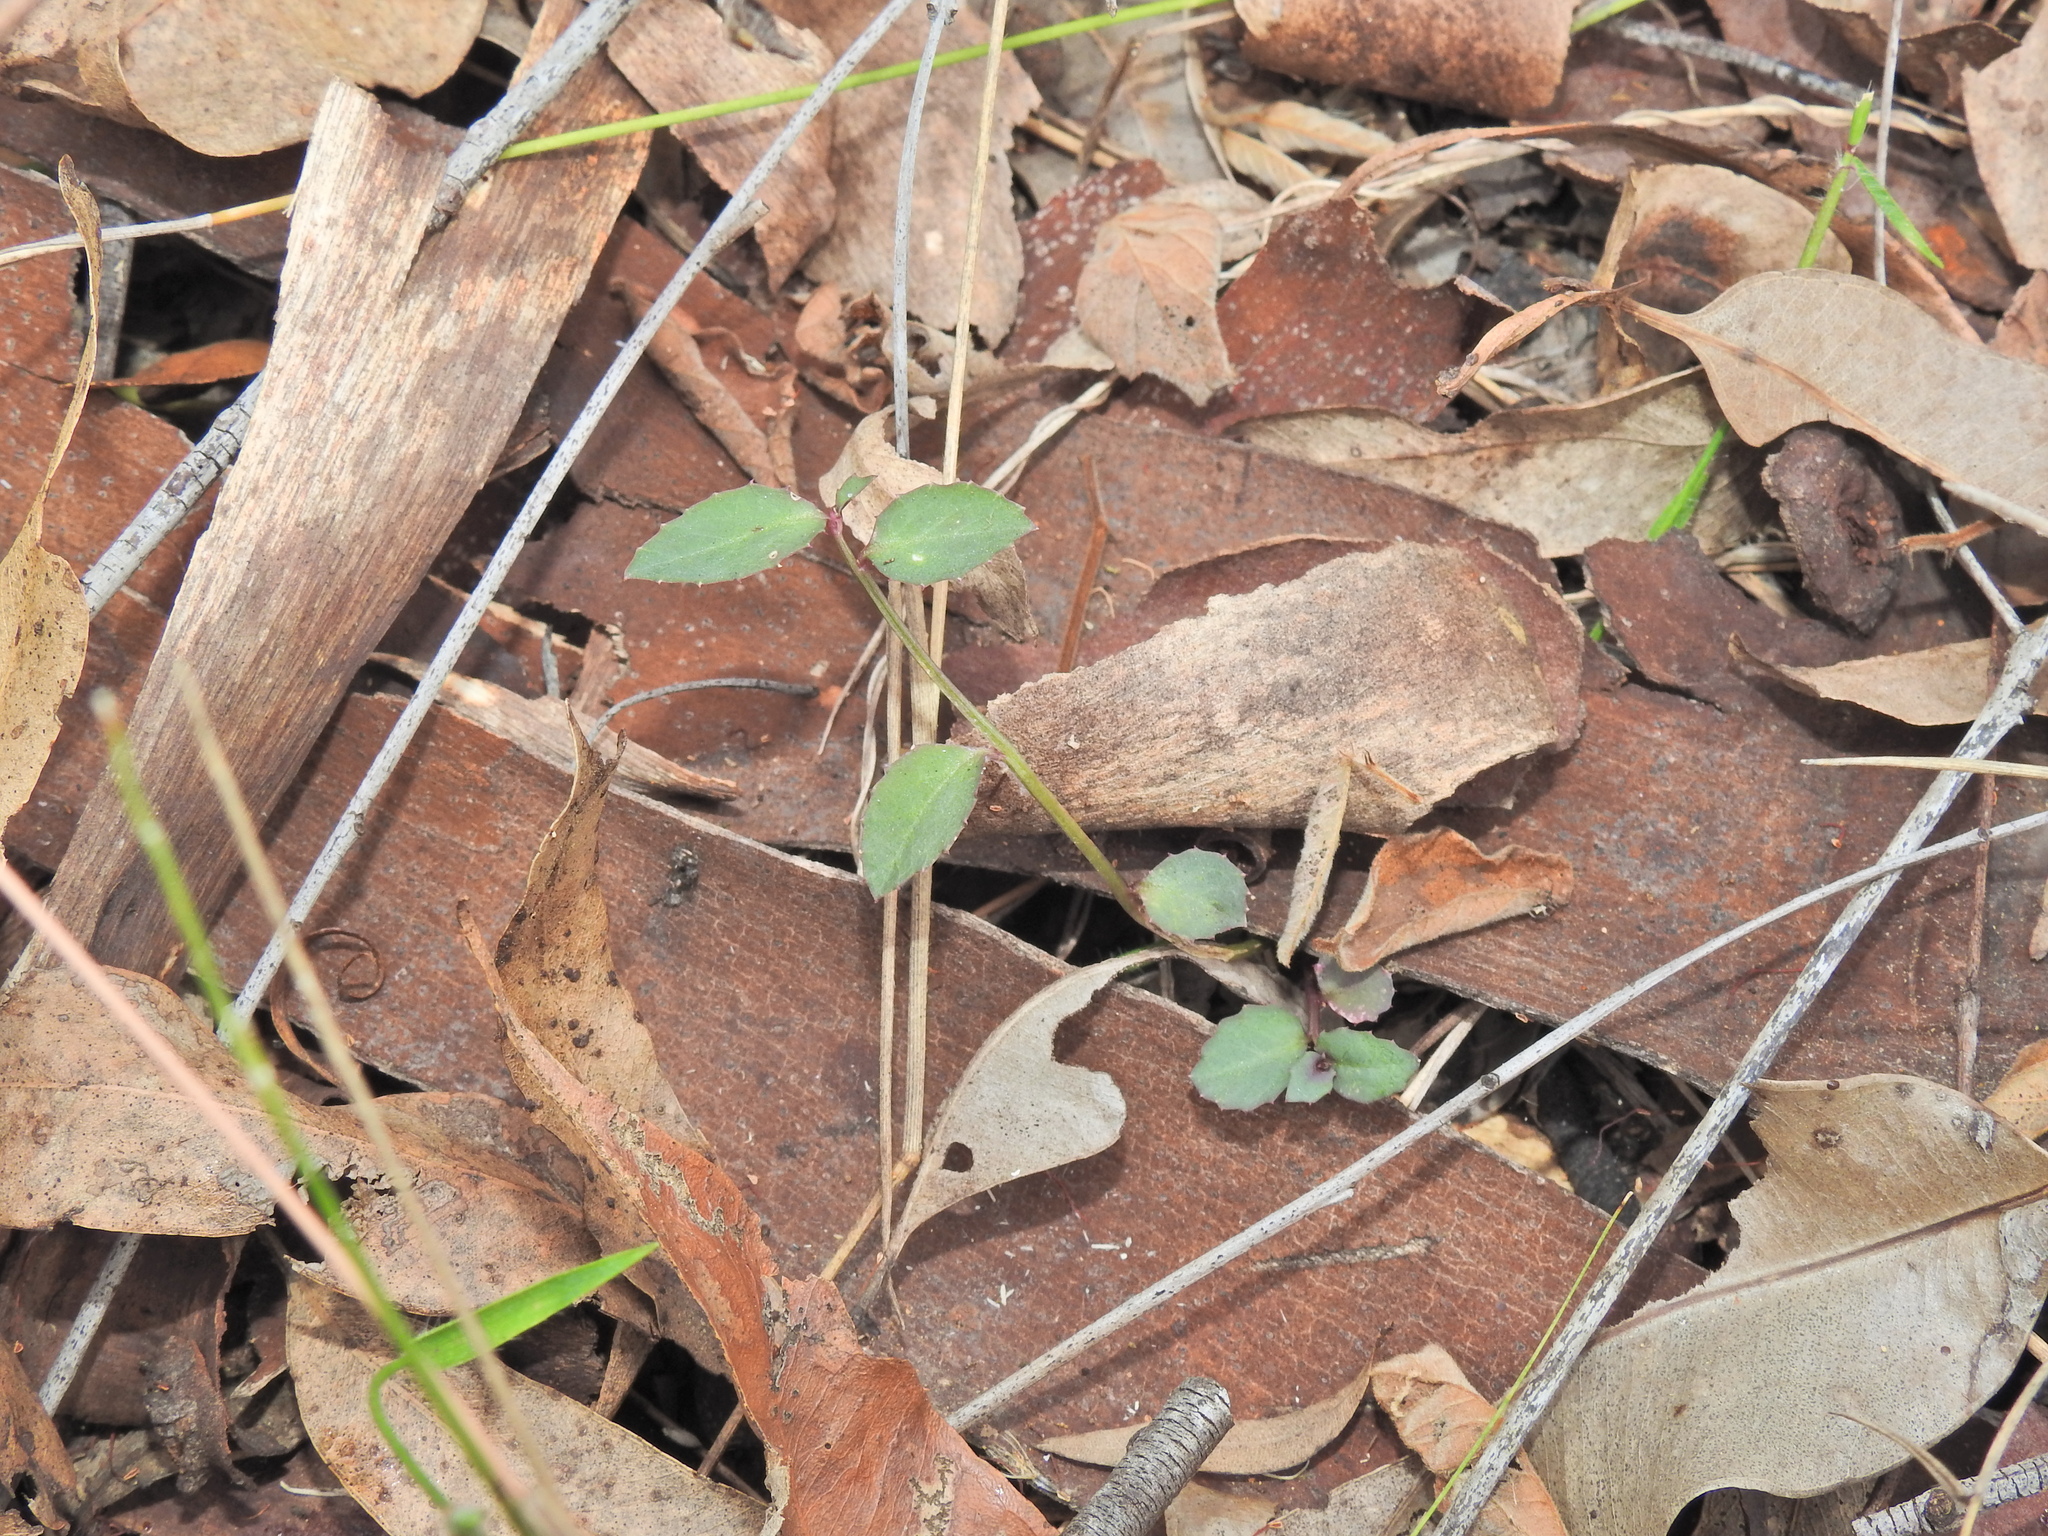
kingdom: Plantae
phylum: Tracheophyta
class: Magnoliopsida
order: Asterales
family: Campanulaceae
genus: Lobelia
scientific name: Lobelia purpurascens
